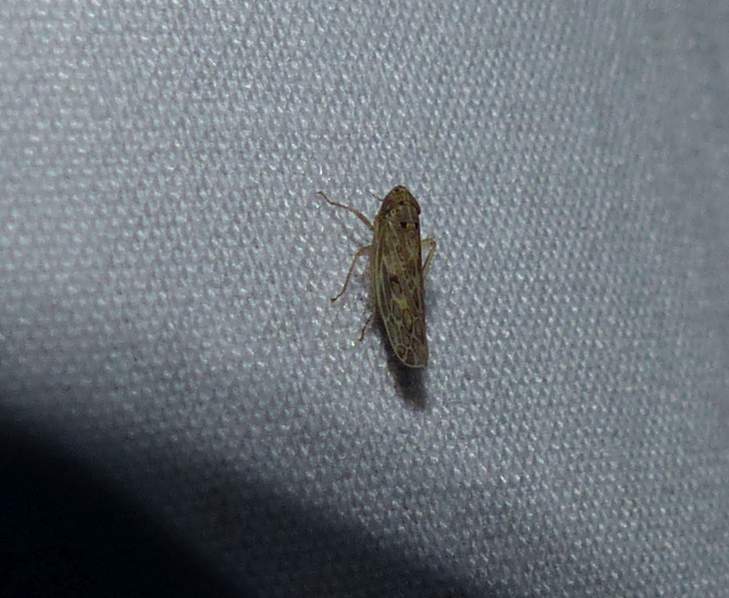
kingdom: Animalia
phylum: Arthropoda
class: Insecta
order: Hemiptera
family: Cicadellidae
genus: Endria
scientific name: Endria inimicus
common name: Painted leafhopper
